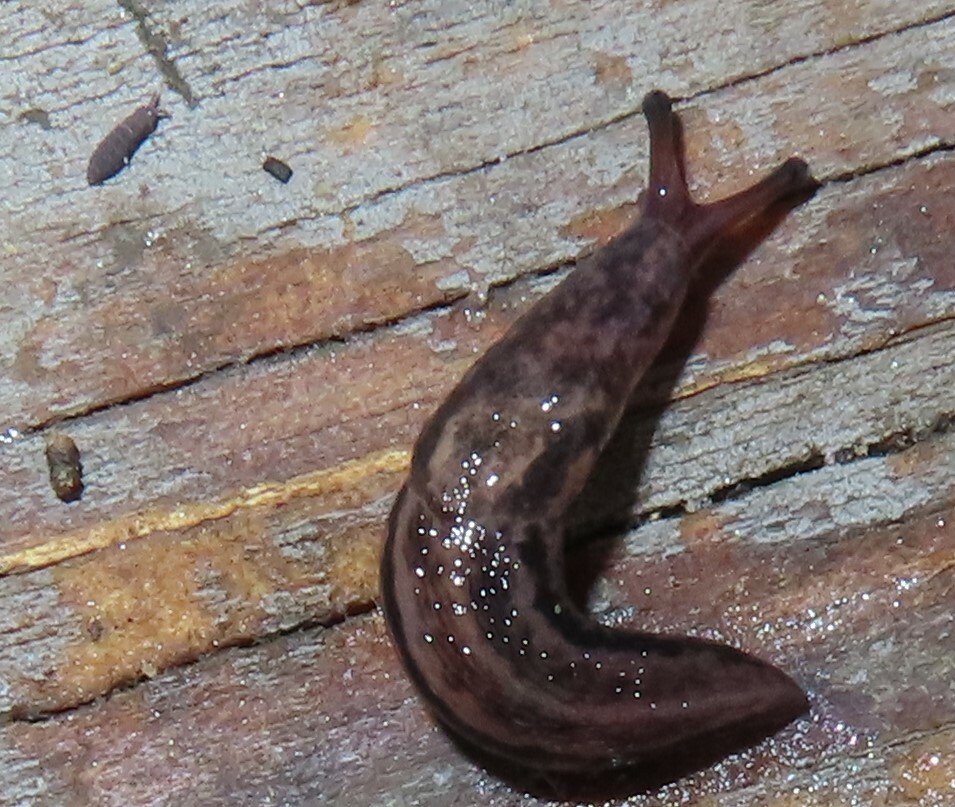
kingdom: Animalia
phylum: Mollusca
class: Gastropoda
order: Stylommatophora
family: Limacidae
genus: Limax
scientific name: Limax maximus
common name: Great grey slug
